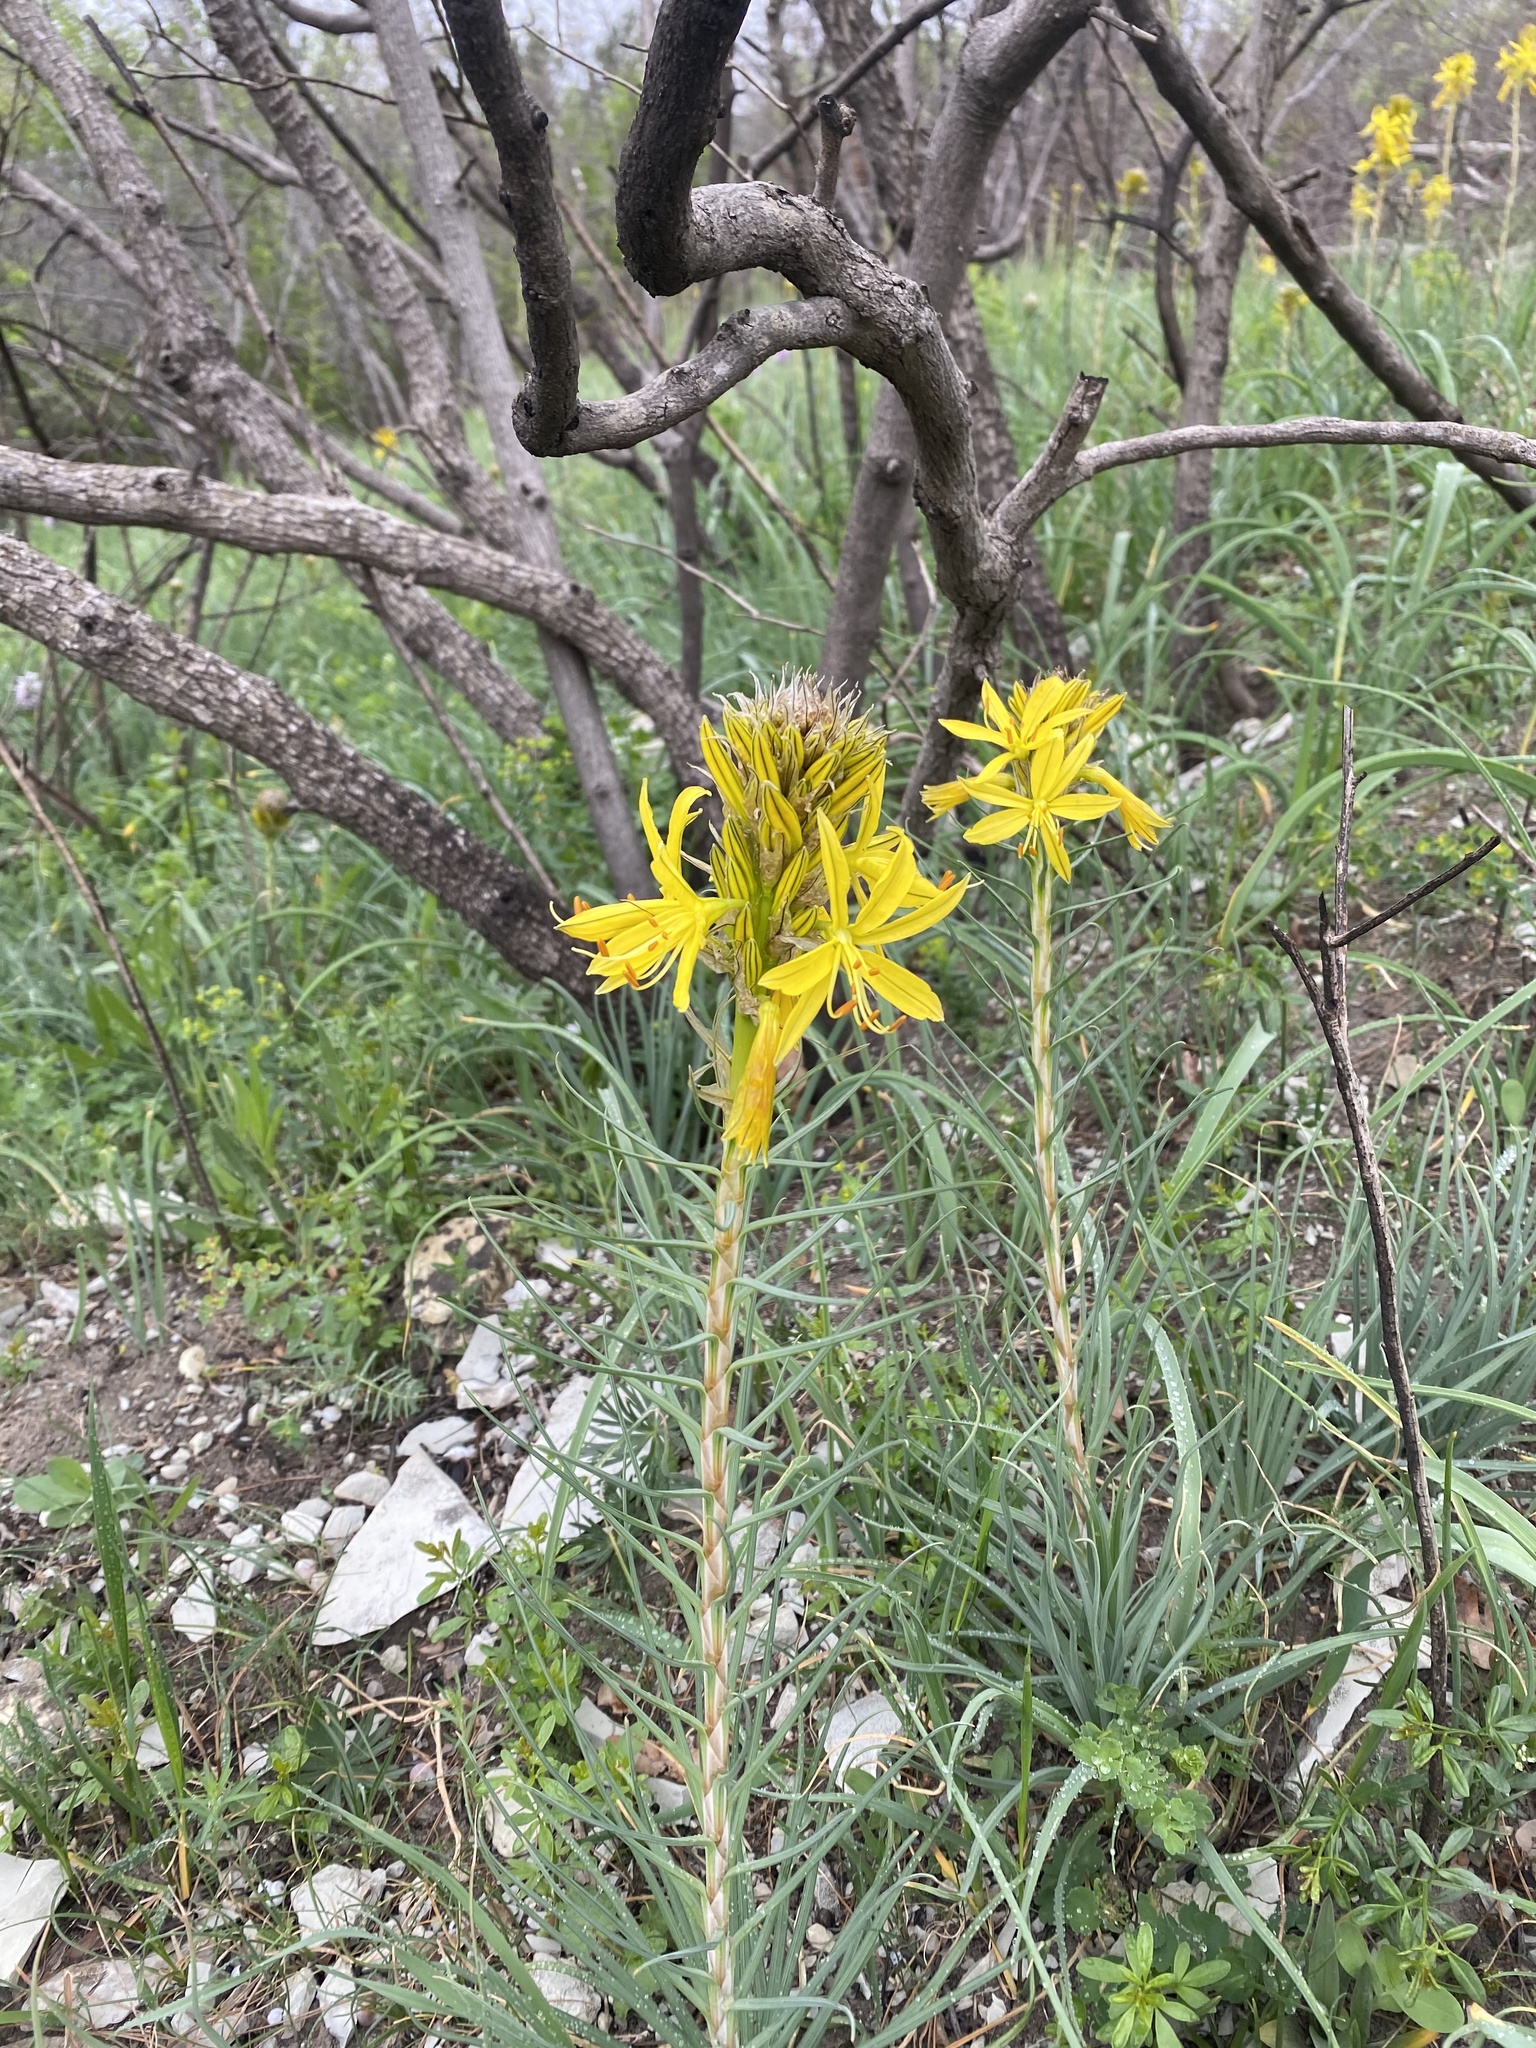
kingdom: Plantae
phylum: Tracheophyta
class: Liliopsida
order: Asparagales
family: Asphodelaceae
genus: Asphodeline
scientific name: Asphodeline lutea
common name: Yellow asphodel
